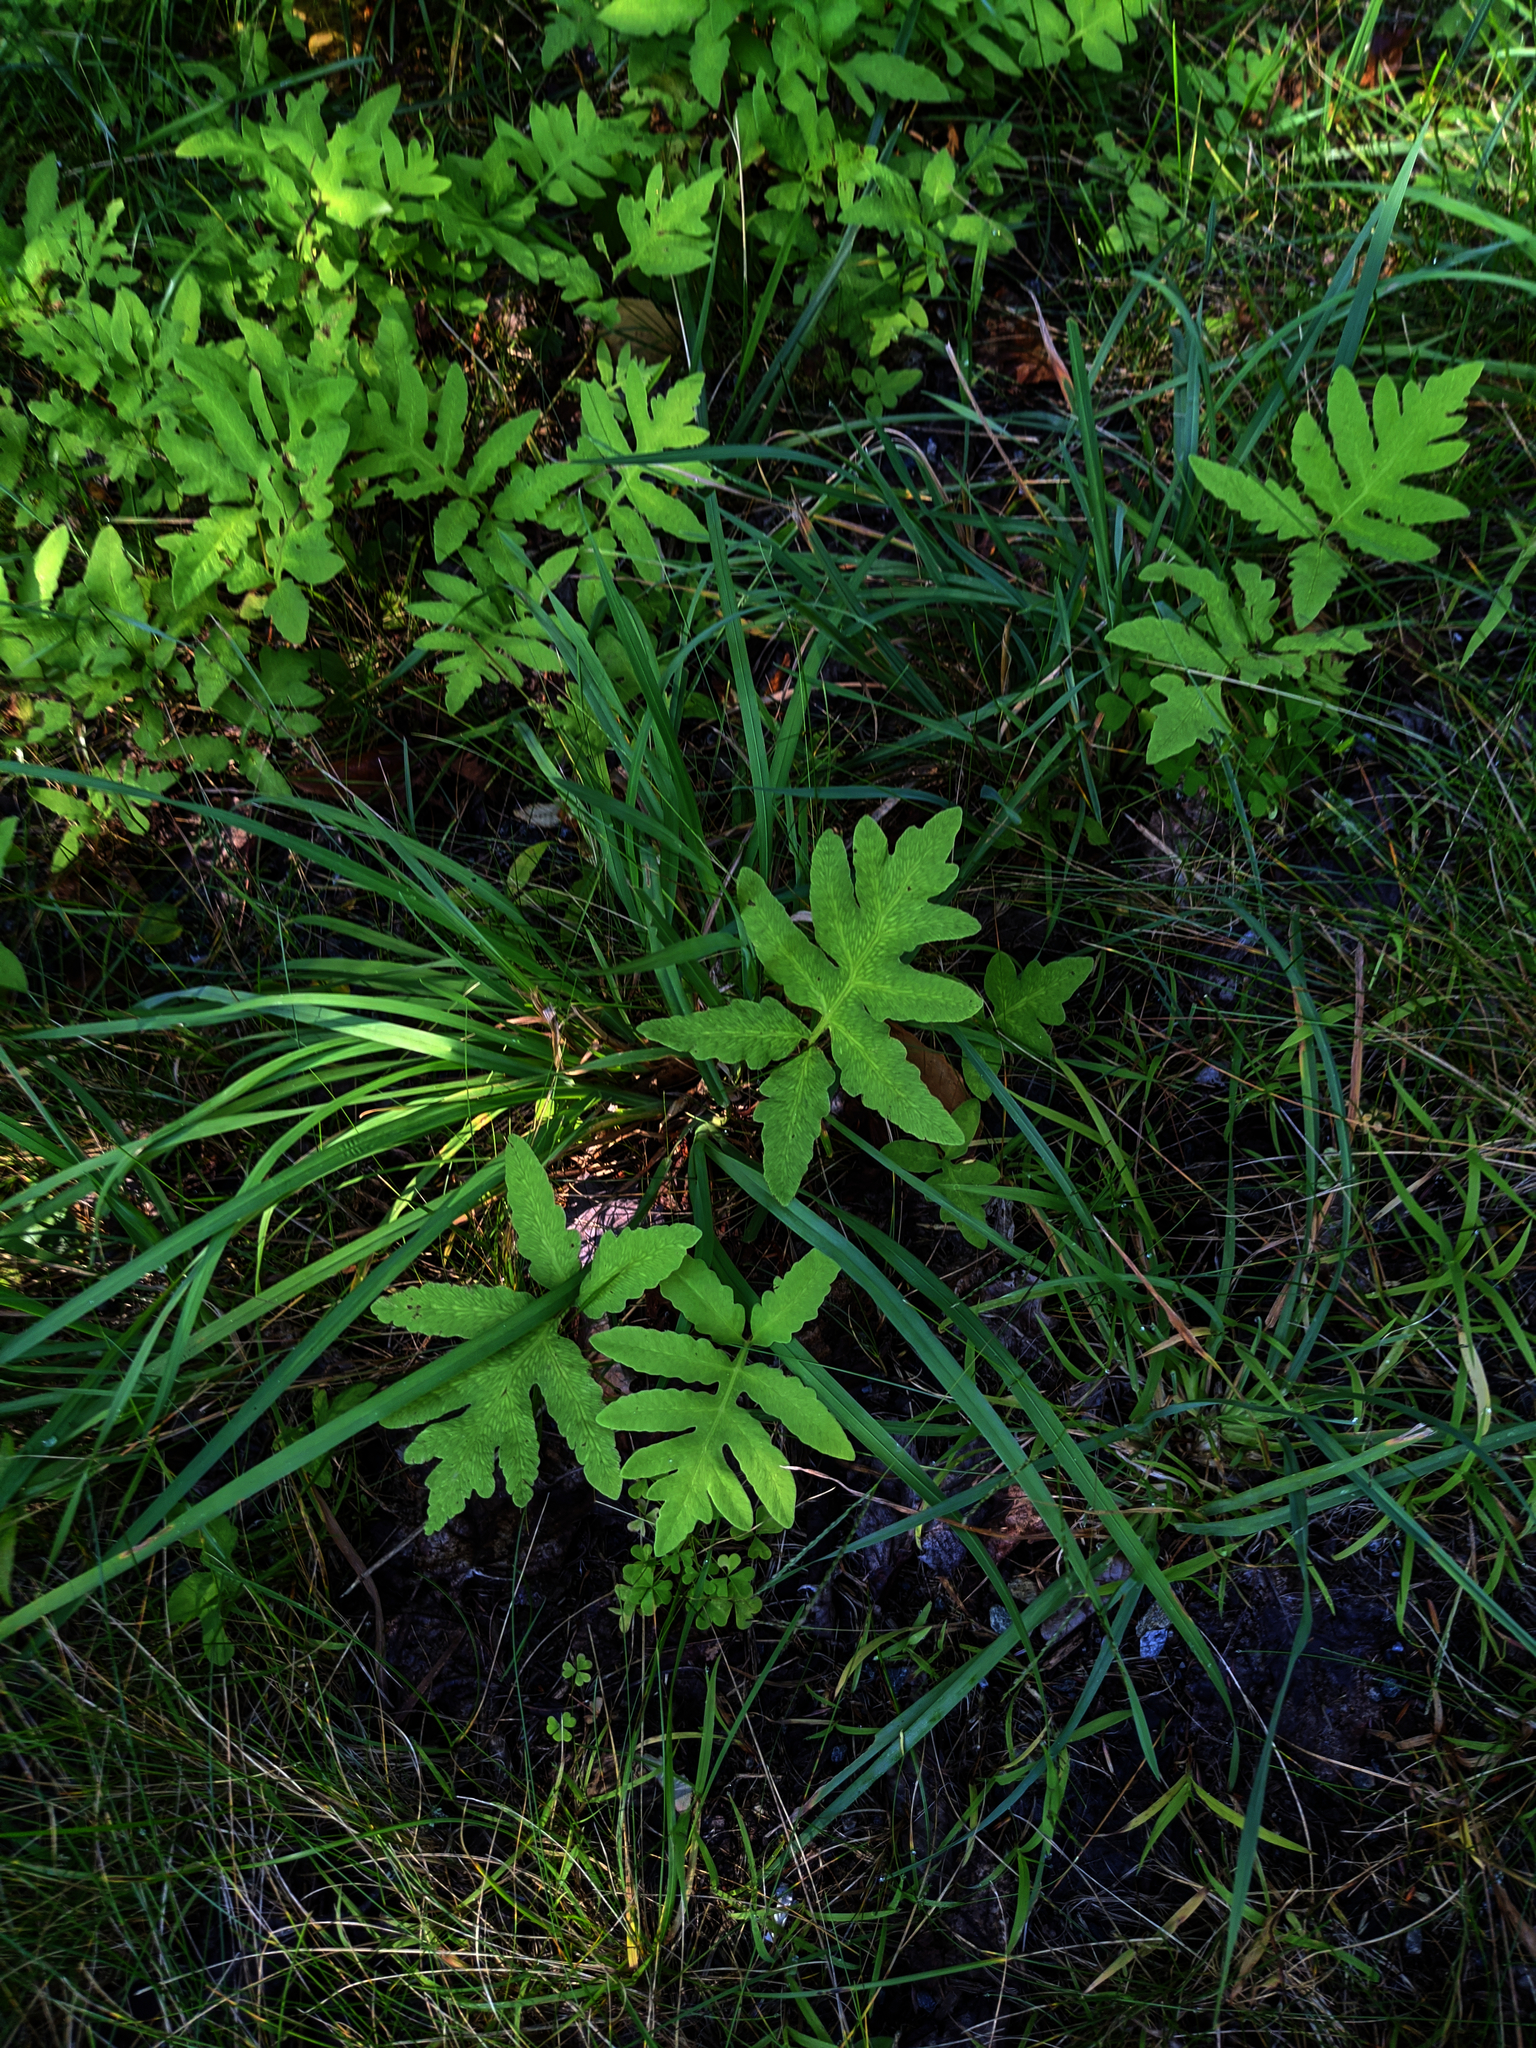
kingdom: Plantae
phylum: Tracheophyta
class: Polypodiopsida
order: Polypodiales
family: Onocleaceae
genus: Onoclea
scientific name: Onoclea sensibilis
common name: Sensitive fern
